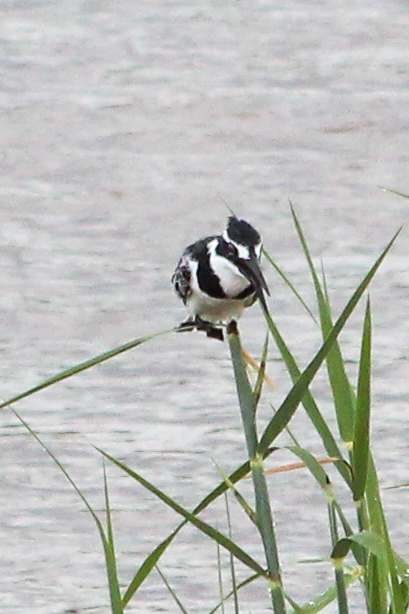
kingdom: Animalia
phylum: Chordata
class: Aves
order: Coraciiformes
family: Alcedinidae
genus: Ceryle
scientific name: Ceryle rudis
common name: Pied kingfisher
